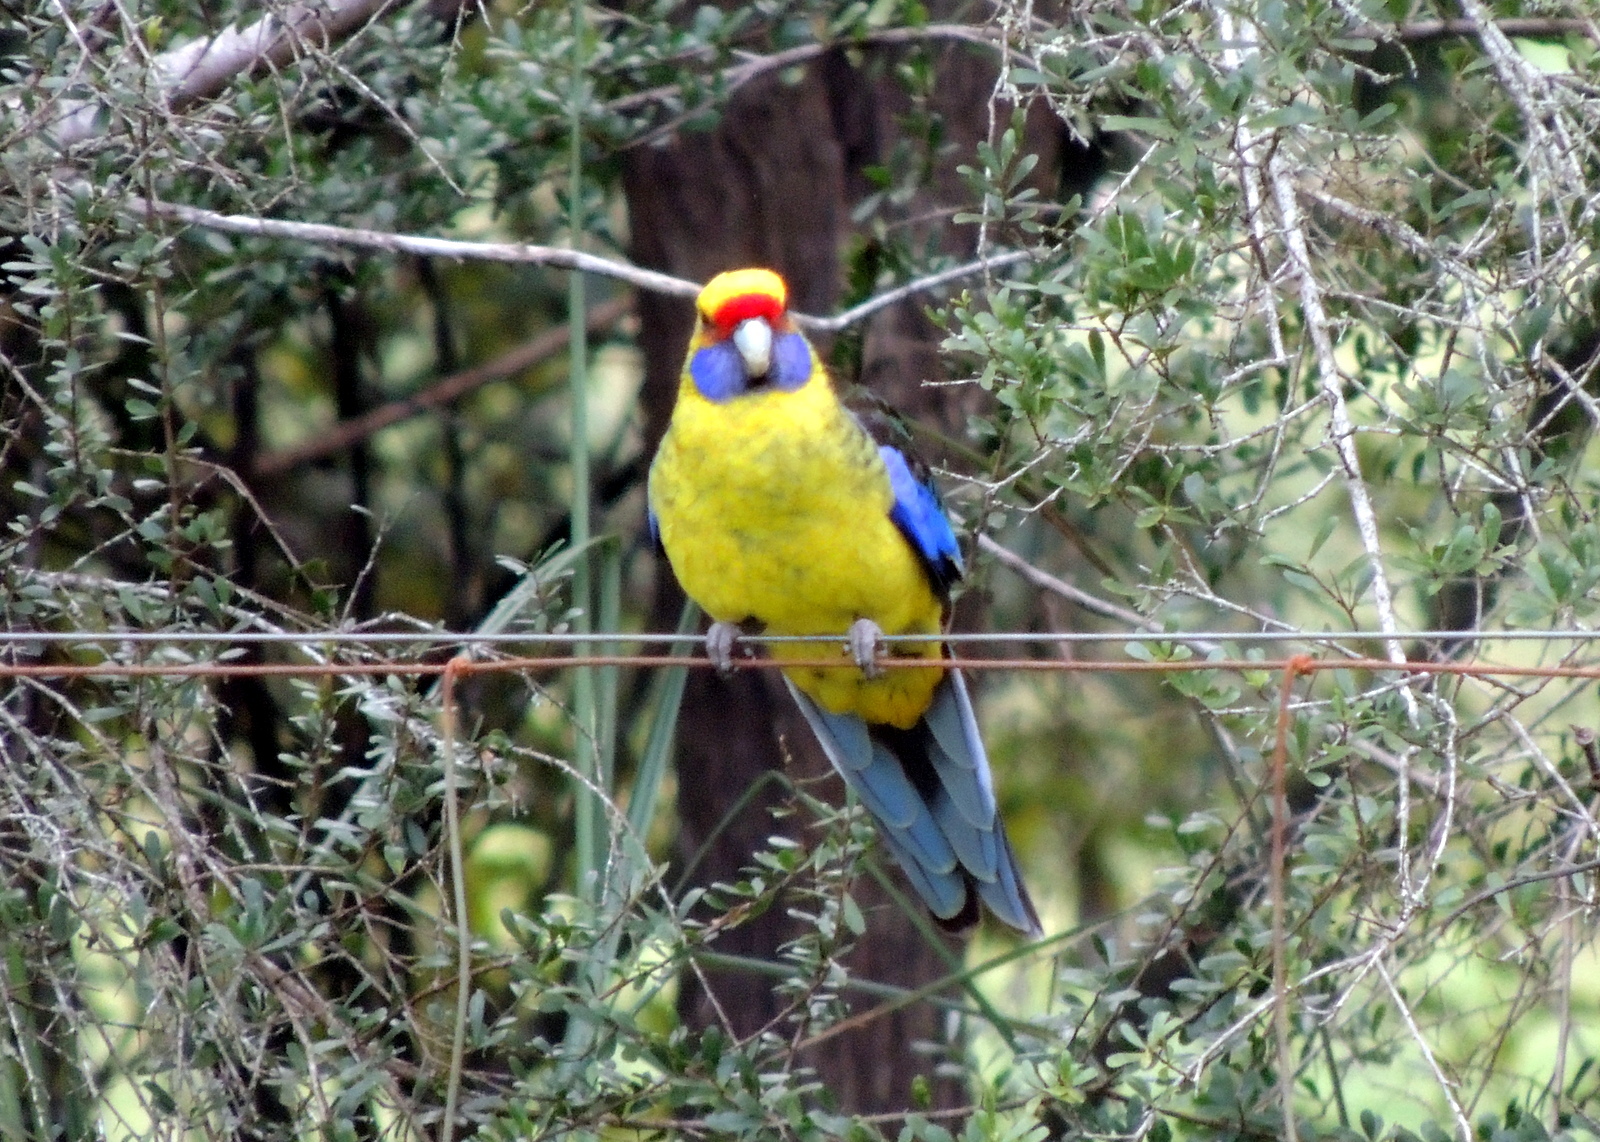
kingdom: Animalia
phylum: Chordata
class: Aves
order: Psittaciformes
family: Psittacidae
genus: Platycercus
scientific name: Platycercus caledonicus
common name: Green rosella
